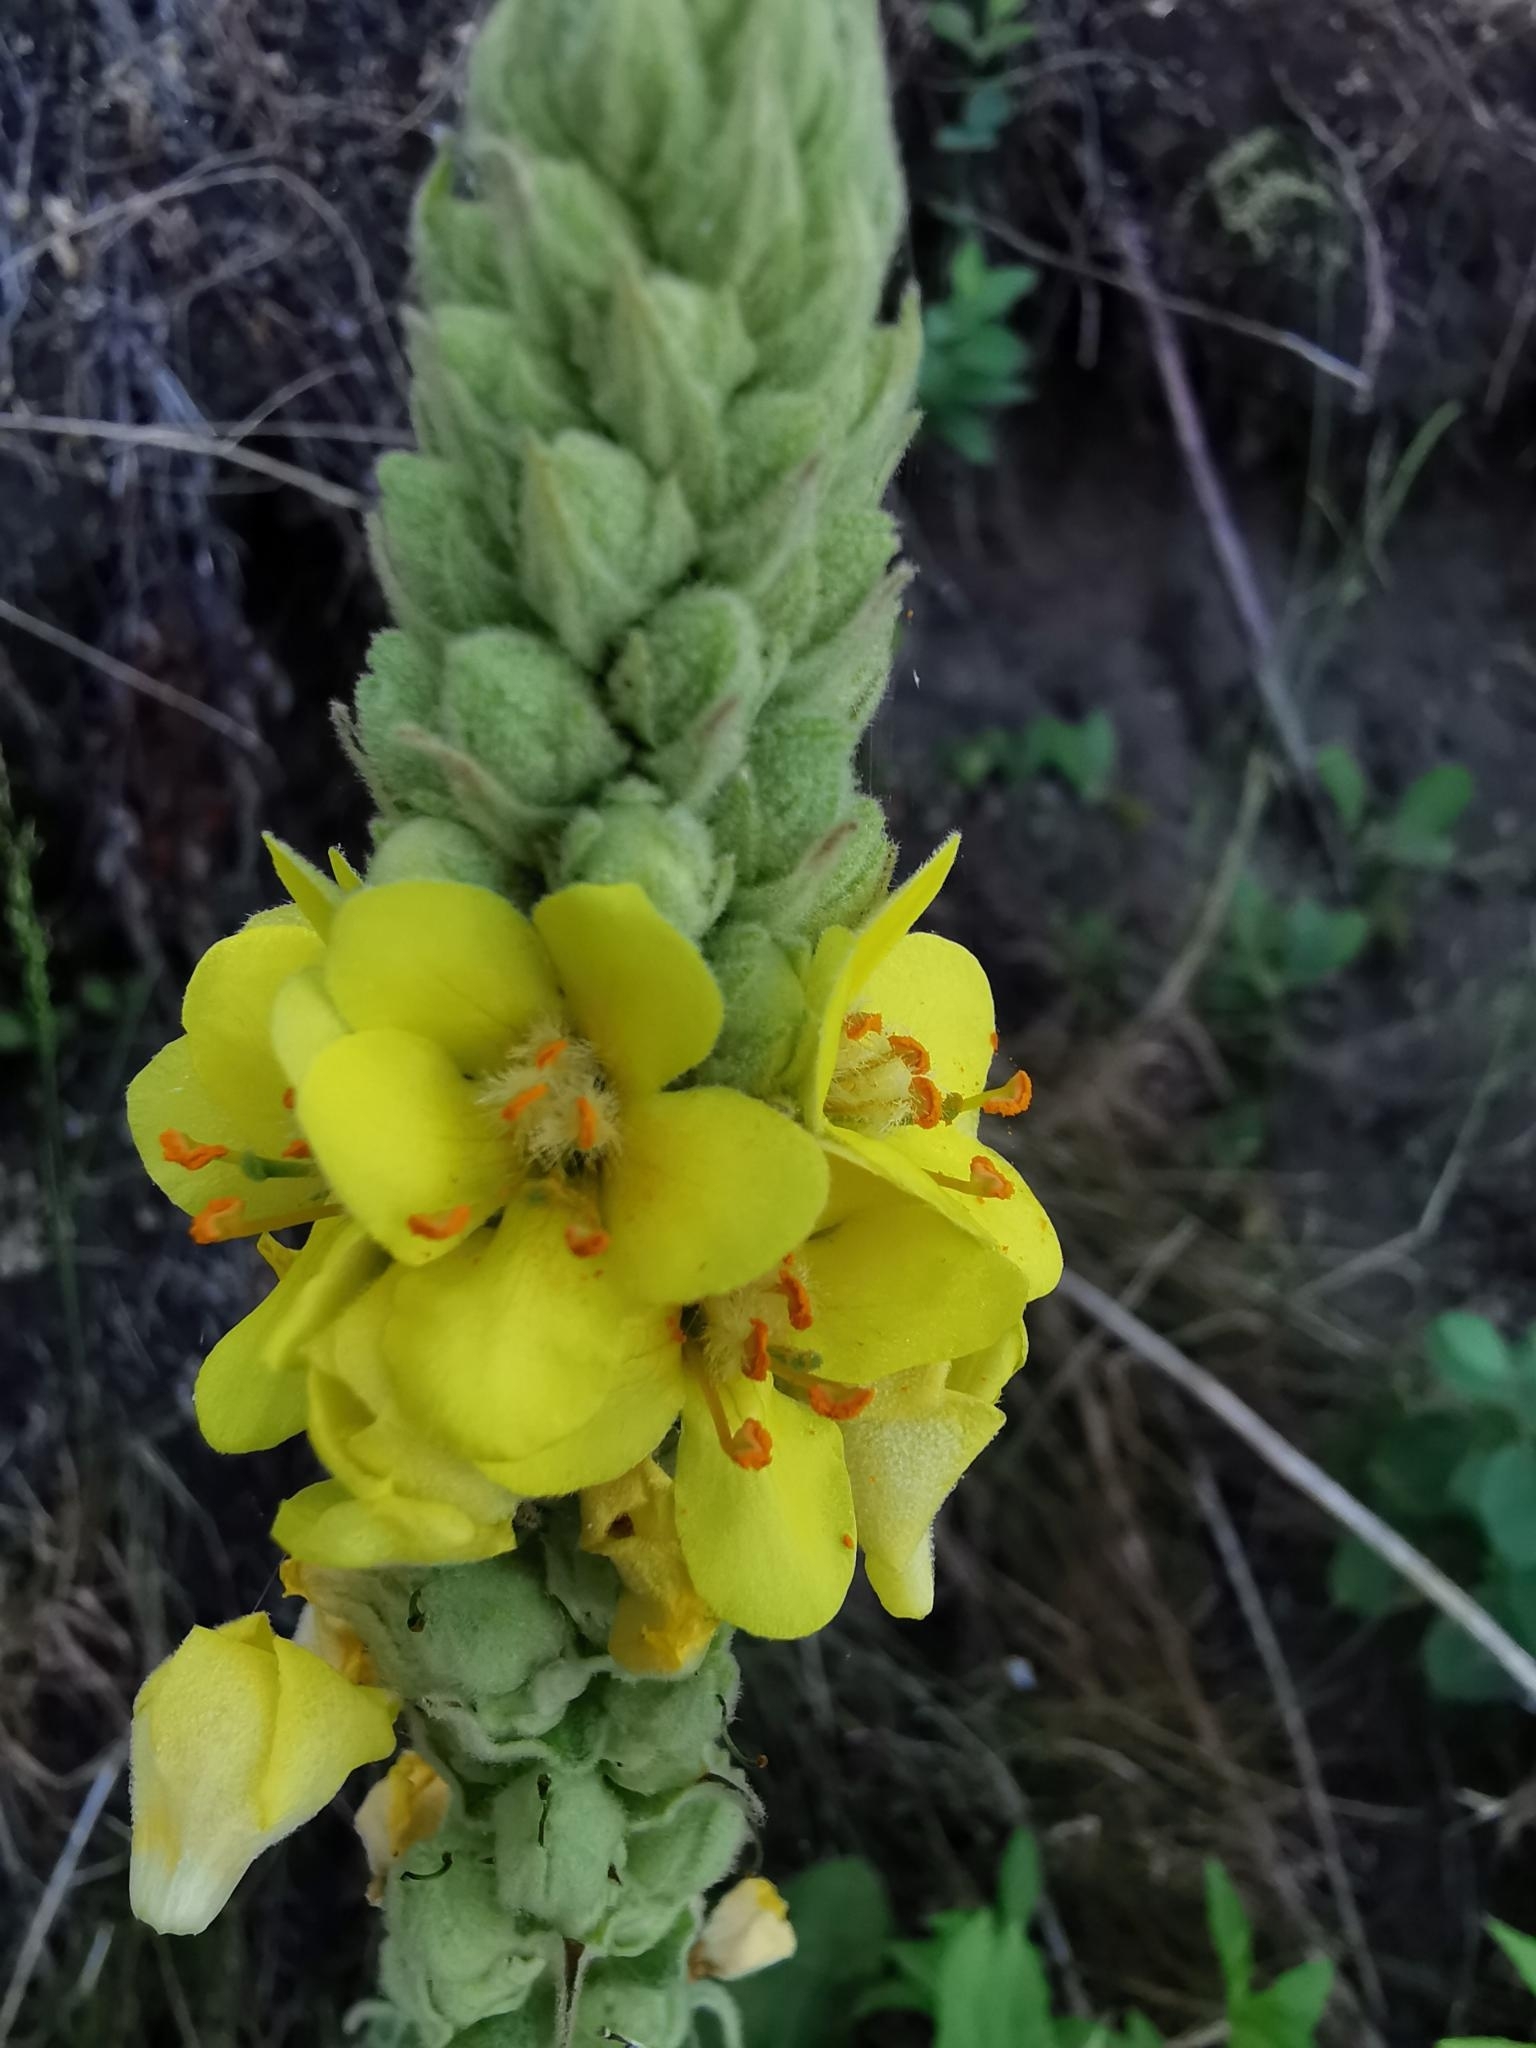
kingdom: Plantae
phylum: Tracheophyta
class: Magnoliopsida
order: Lamiales
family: Scrophulariaceae
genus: Verbascum
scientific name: Verbascum thapsus
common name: Common mullein
